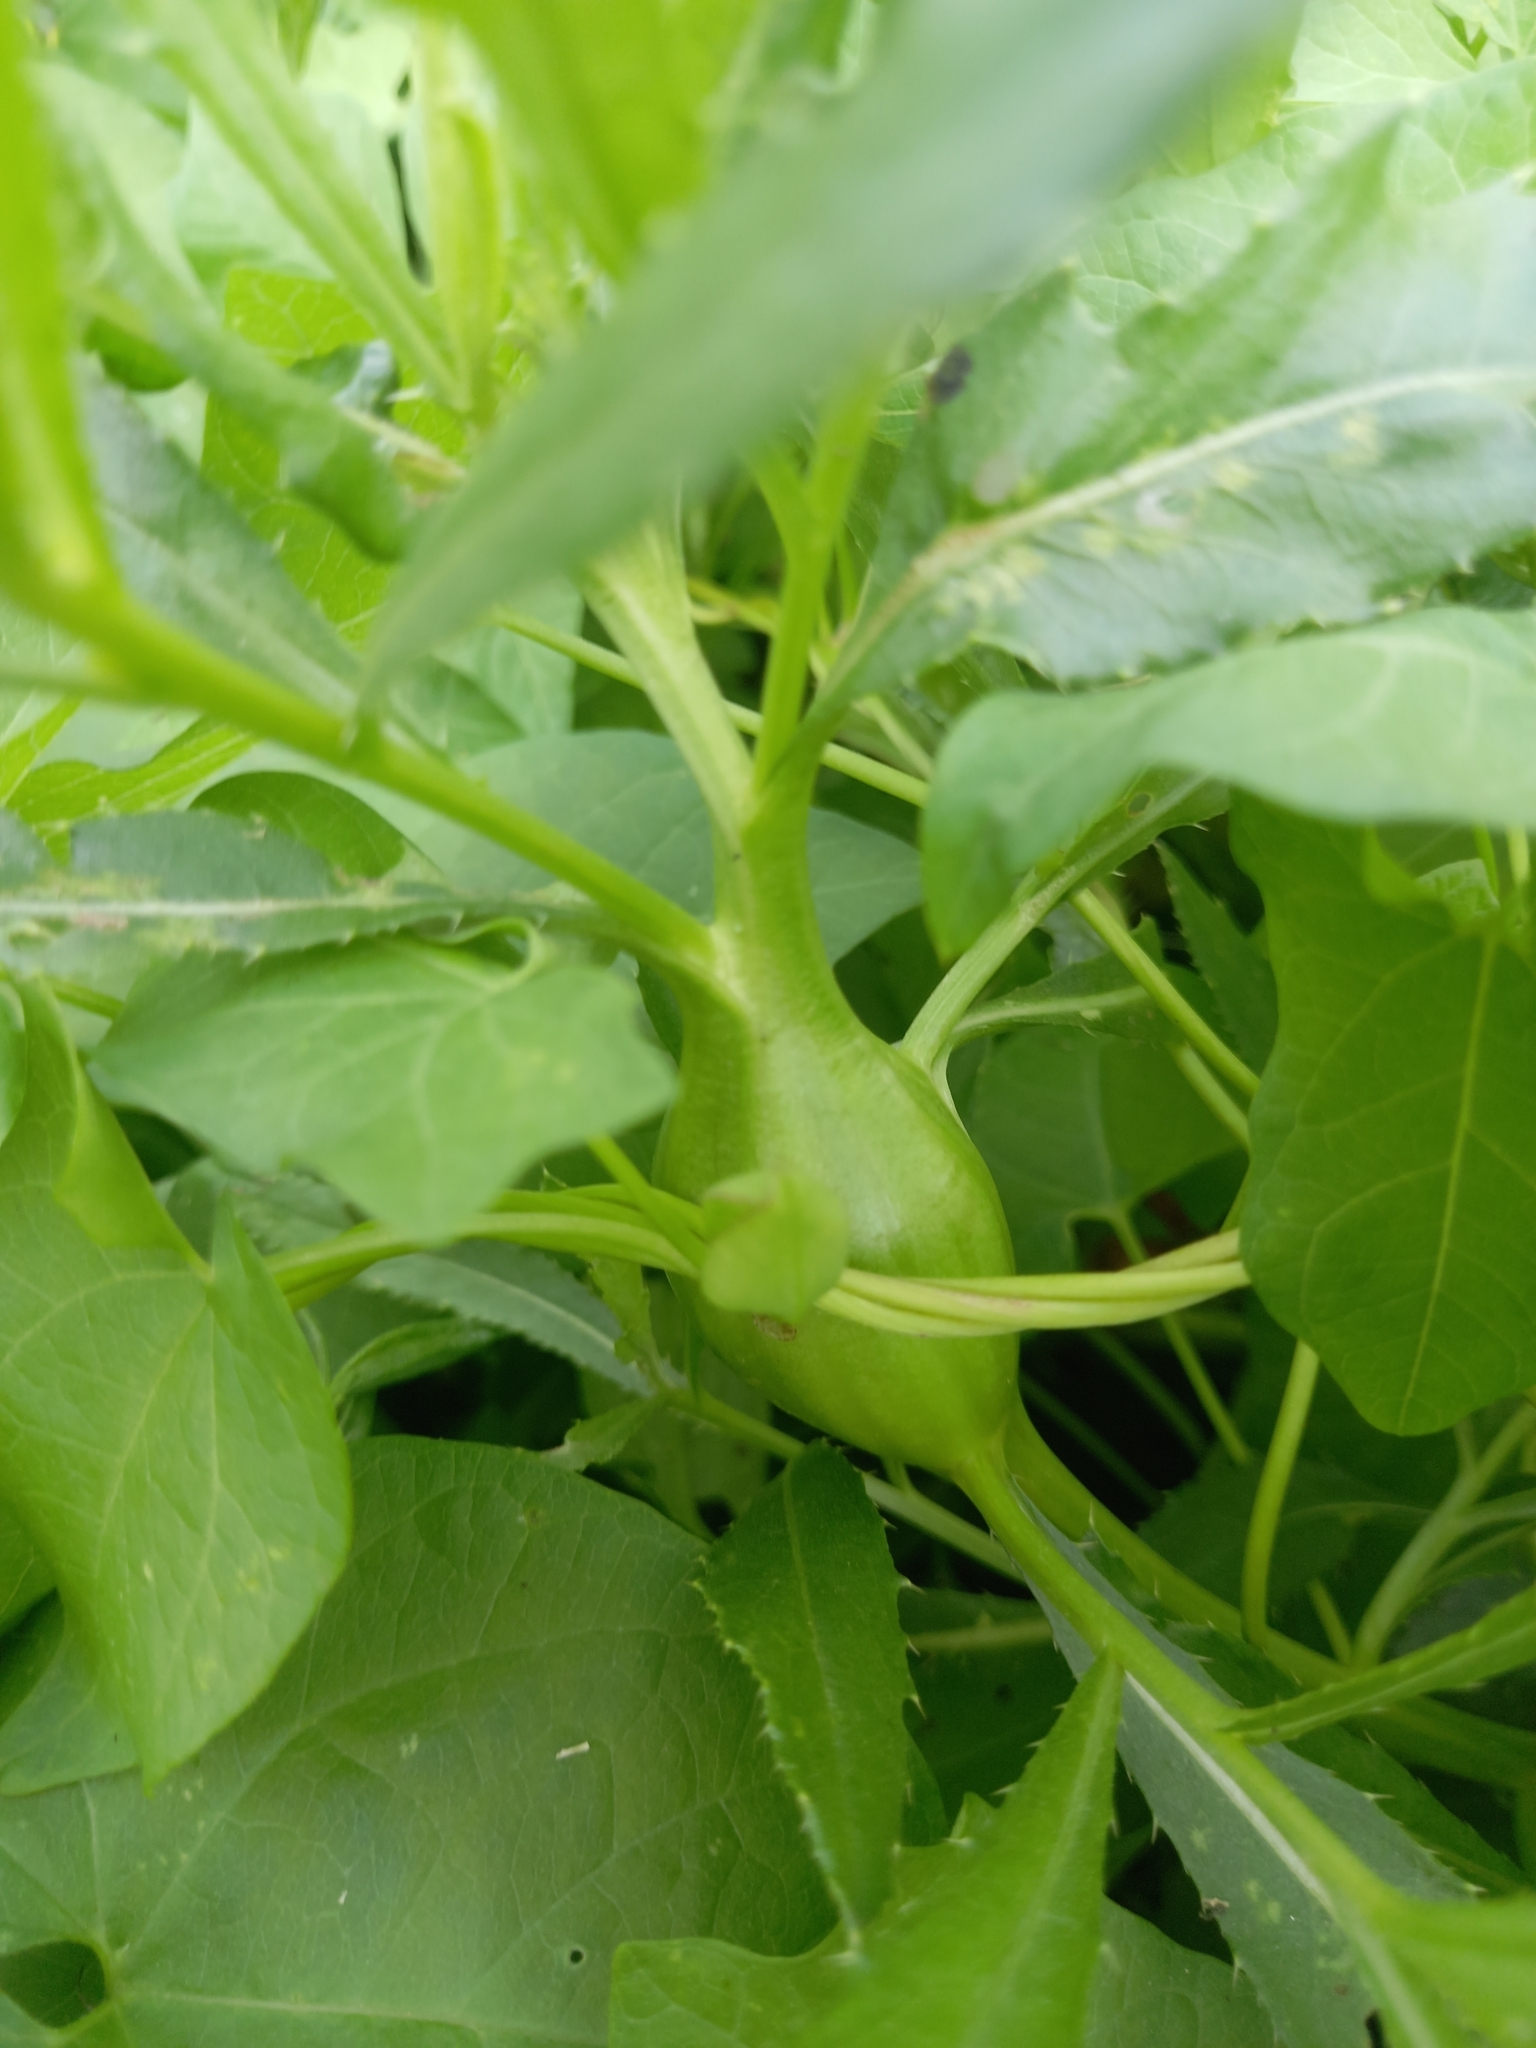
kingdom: Plantae
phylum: Tracheophyta
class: Magnoliopsida
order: Asterales
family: Asteraceae
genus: Cirsium
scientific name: Cirsium arvense
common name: Creeping thistle
